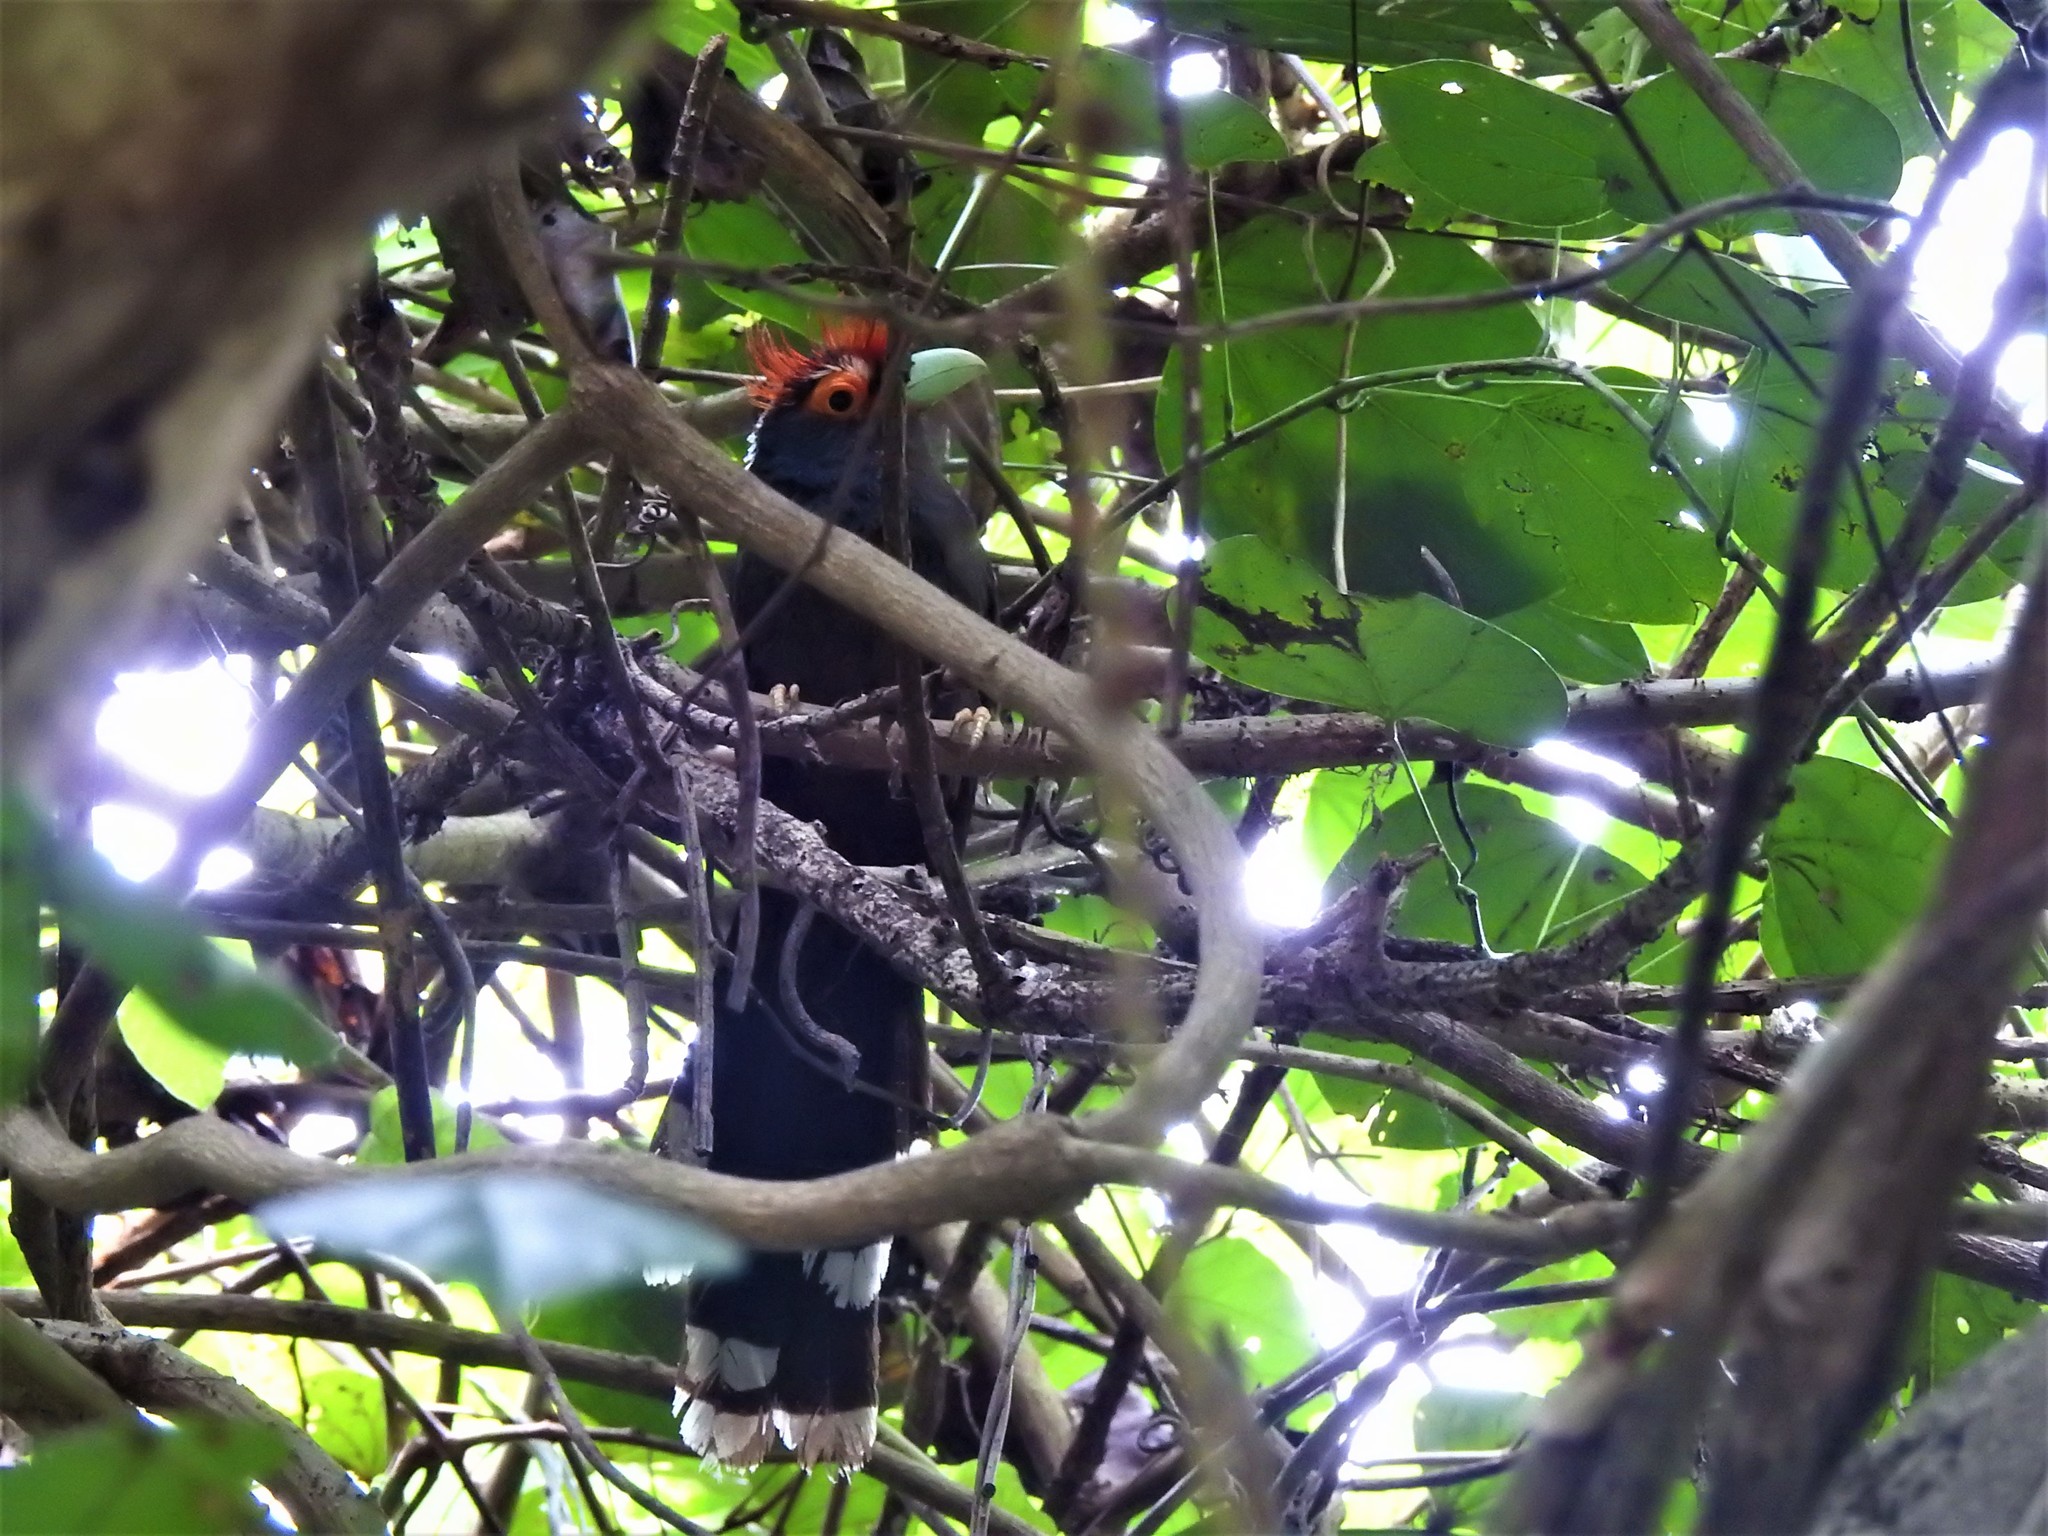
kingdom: Animalia
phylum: Chordata
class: Aves
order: Cuculiformes
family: Cuculidae
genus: Dasylophus
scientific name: Dasylophus superciliosus
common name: Rough-crested malkoha
